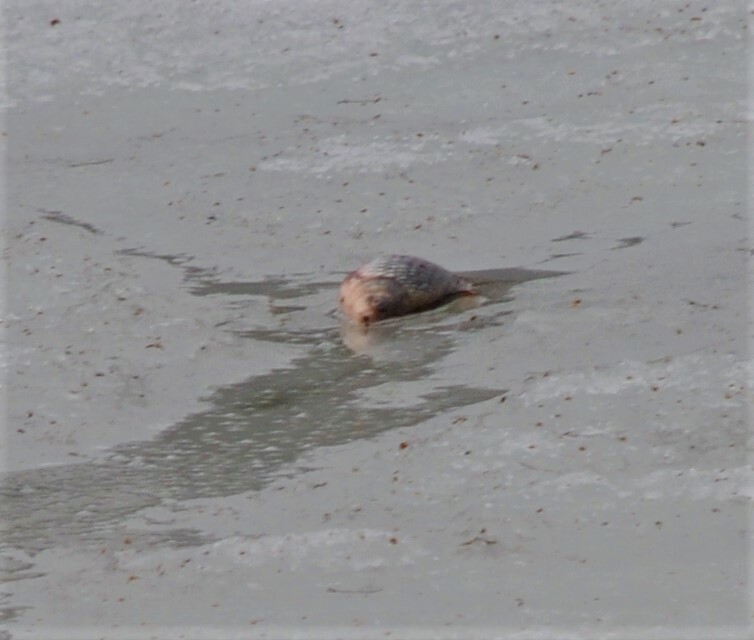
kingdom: Animalia
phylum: Chordata
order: Cypriniformes
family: Cyprinidae
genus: Carassius
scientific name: Carassius gibelio
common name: Prussian carp
